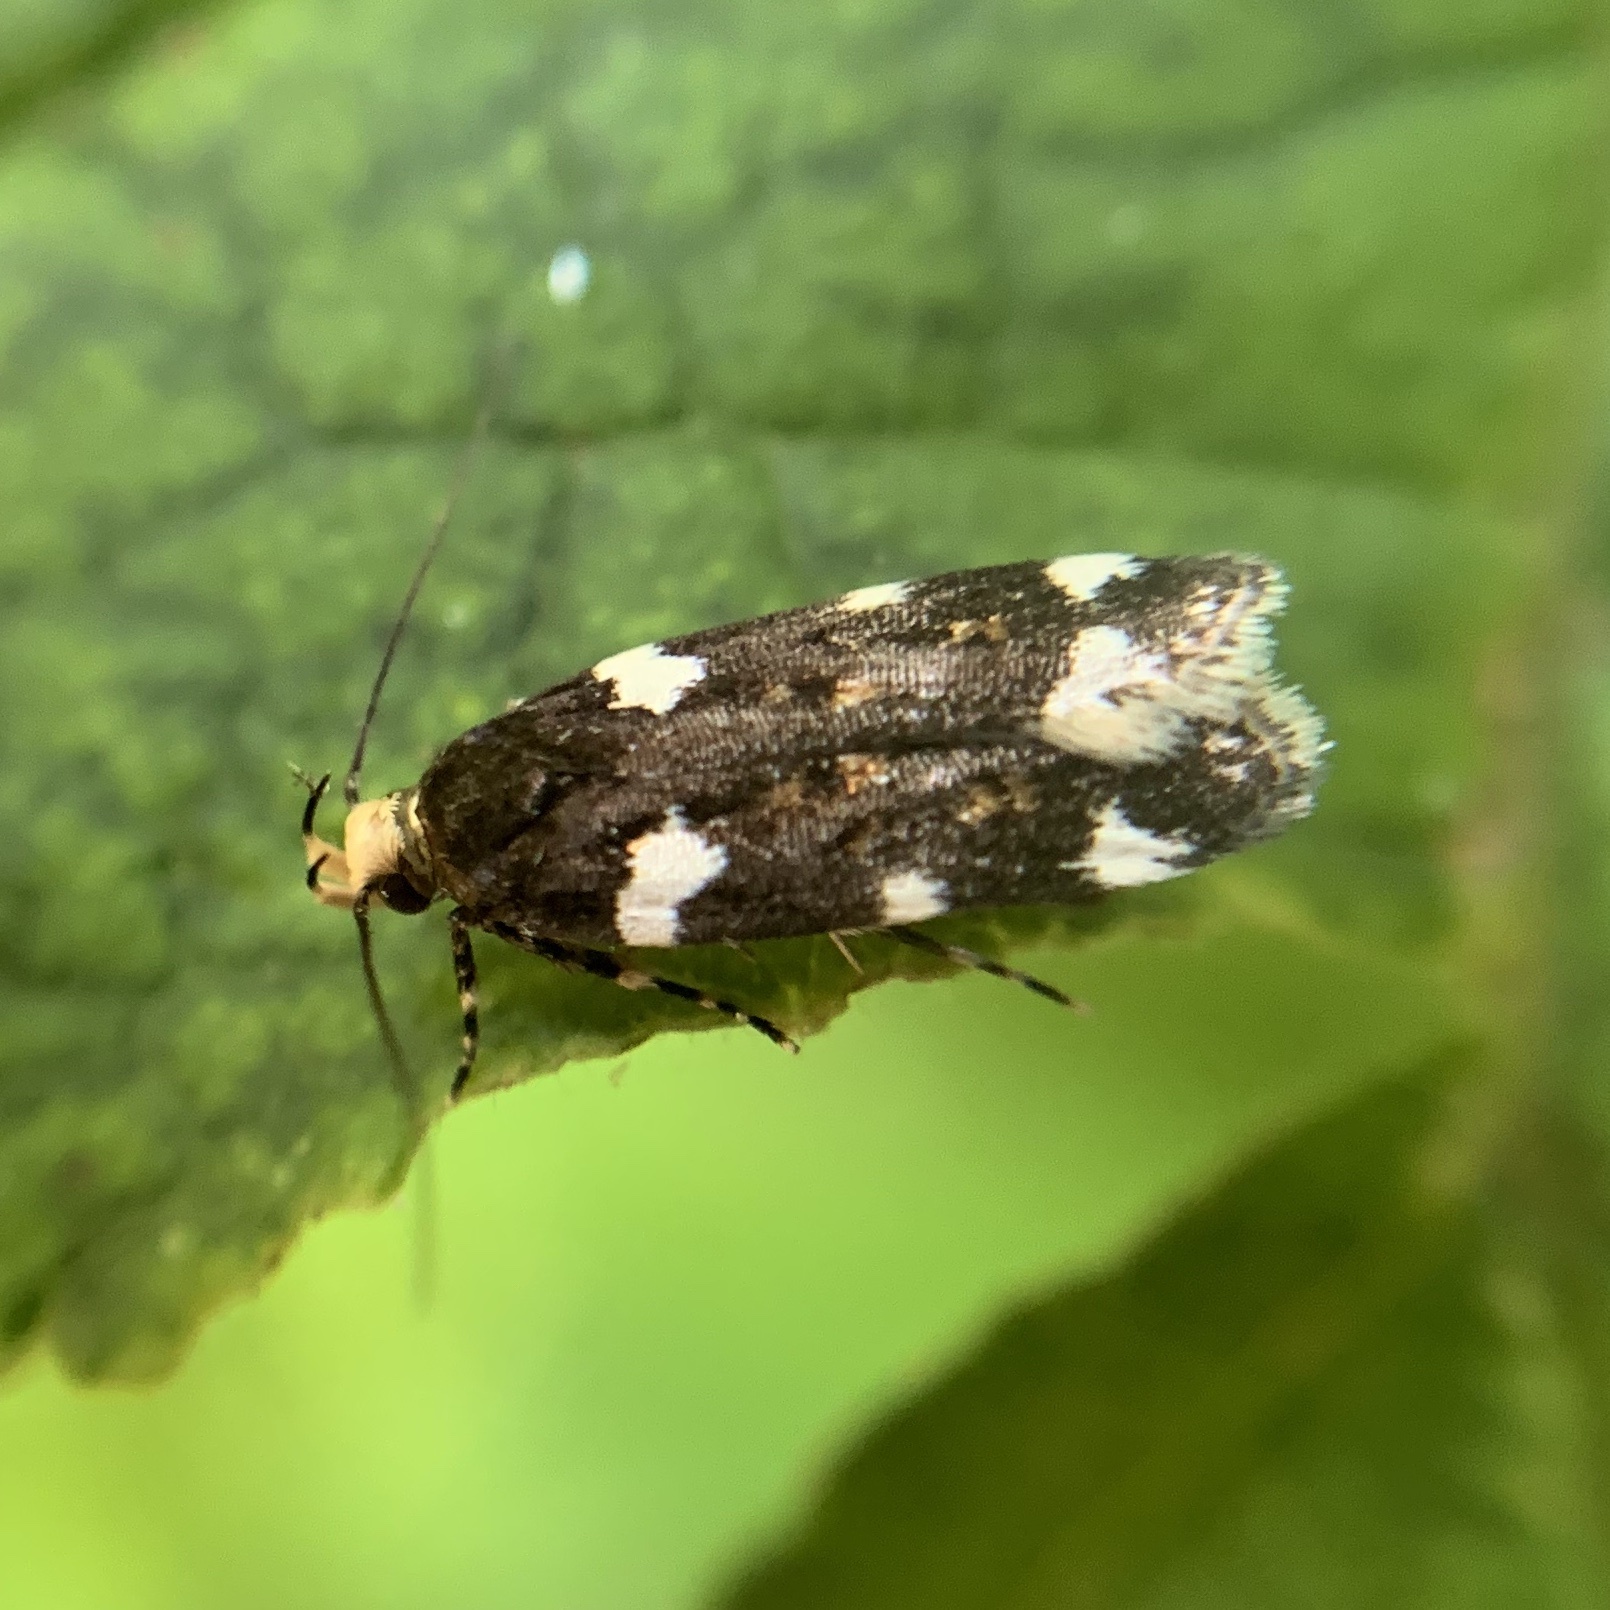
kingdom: Animalia
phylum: Arthropoda
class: Insecta
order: Lepidoptera
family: Gelechiidae
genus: Fascista
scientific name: Fascista cercerisella
